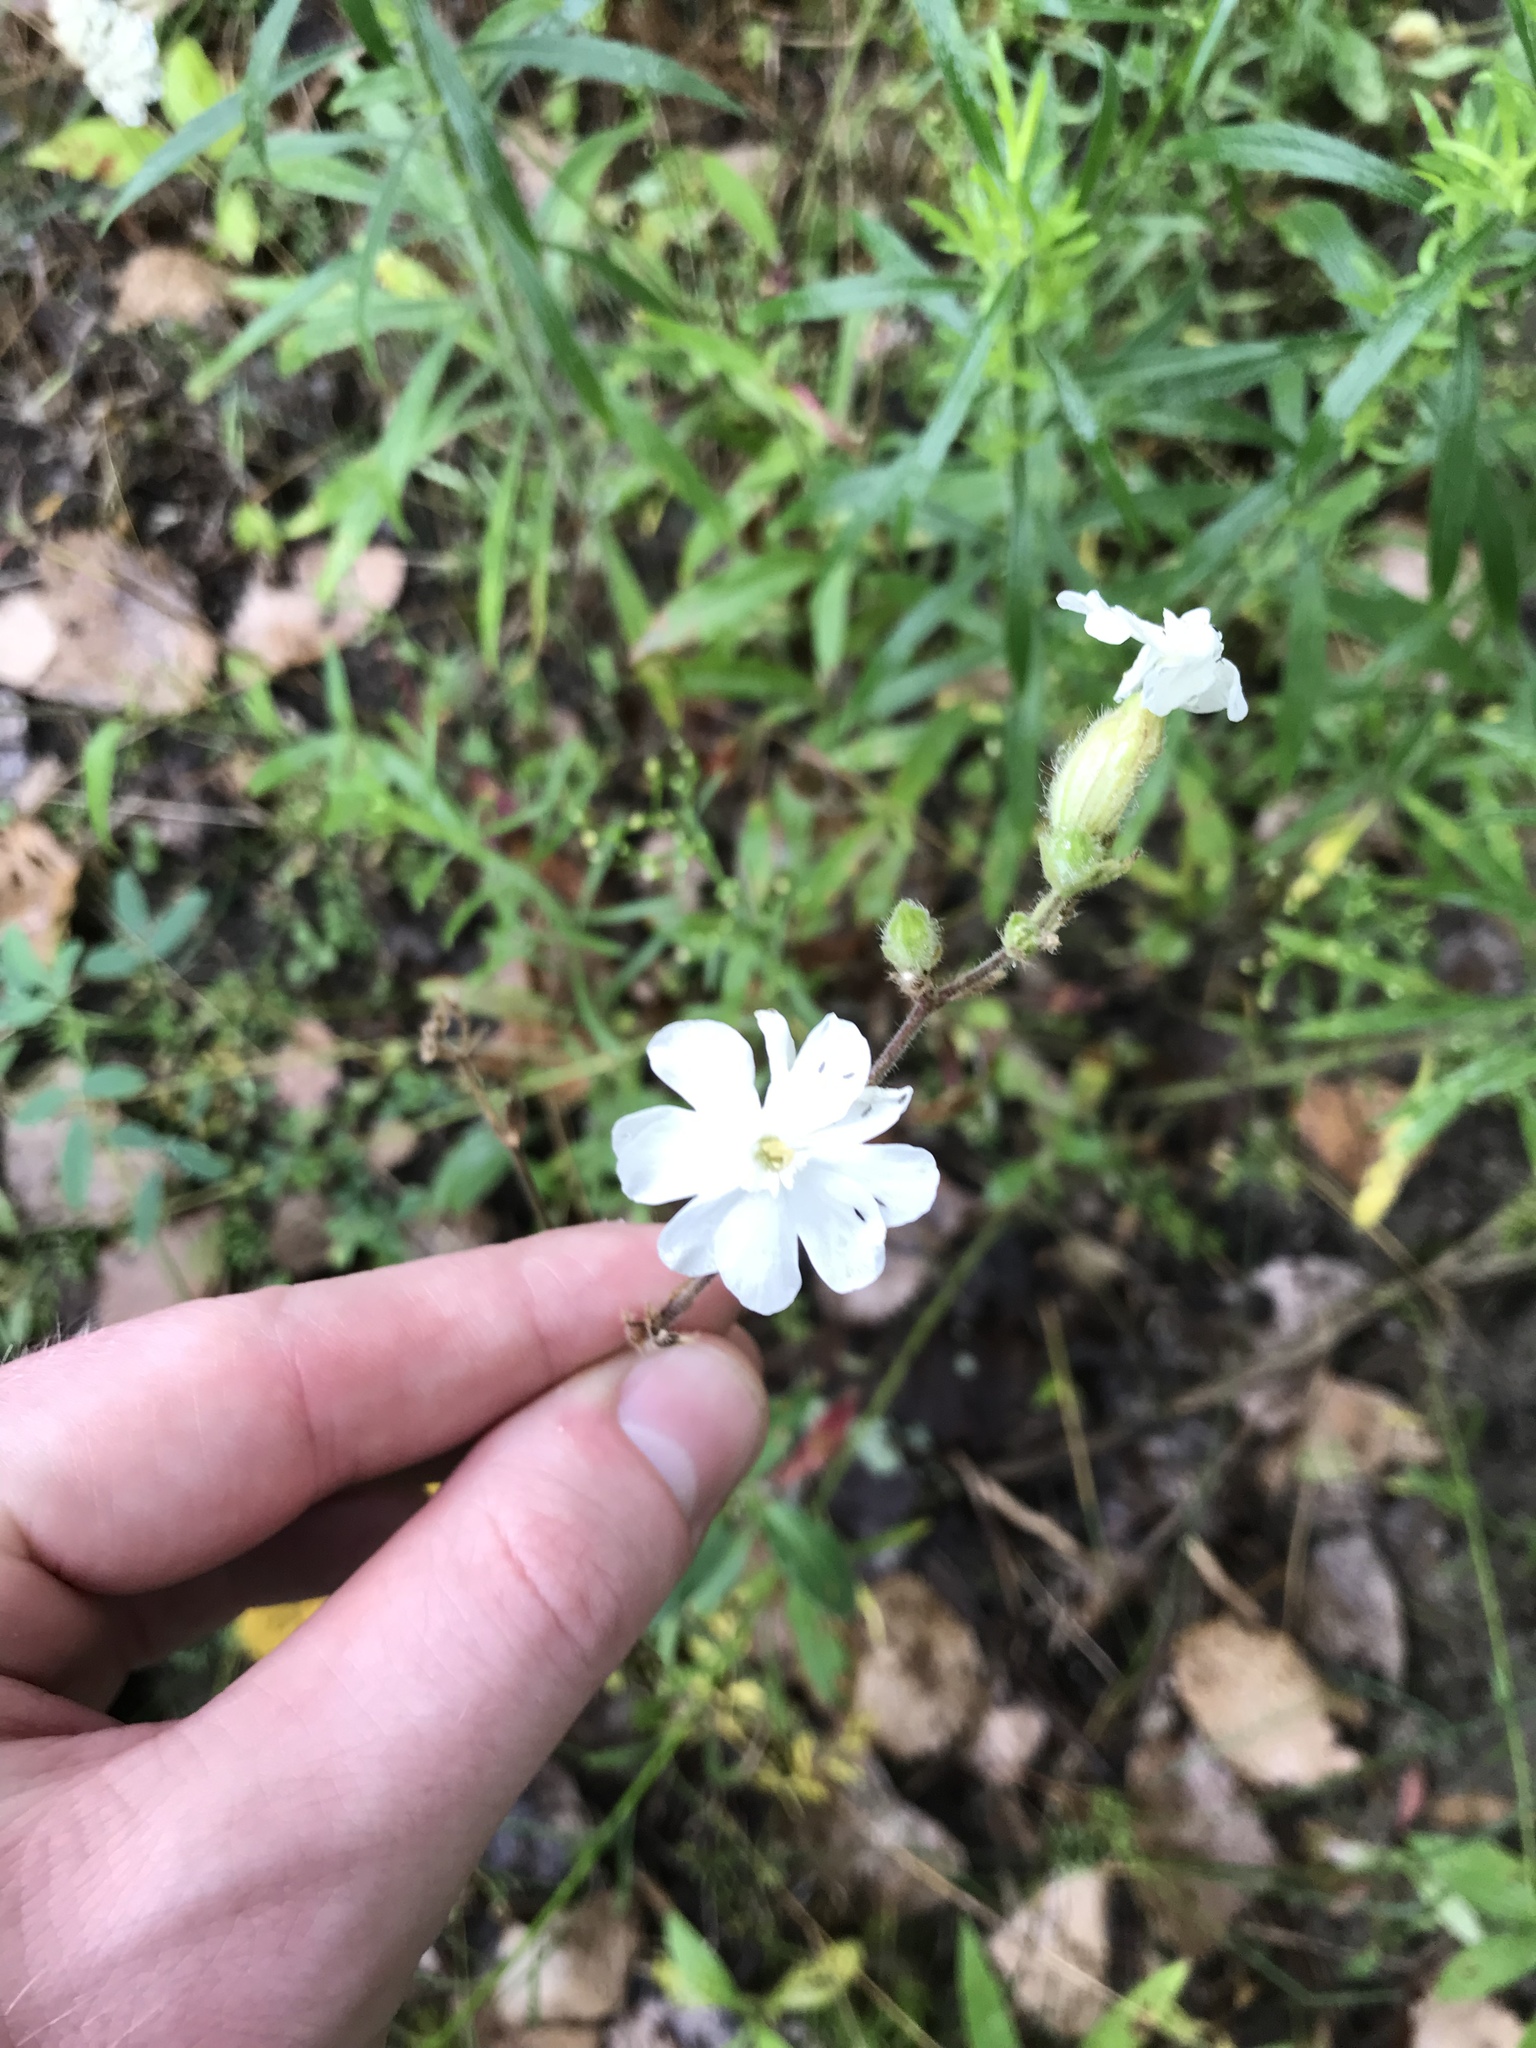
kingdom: Plantae
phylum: Tracheophyta
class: Magnoliopsida
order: Caryophyllales
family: Caryophyllaceae
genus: Silene
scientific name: Silene latifolia
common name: White campion
